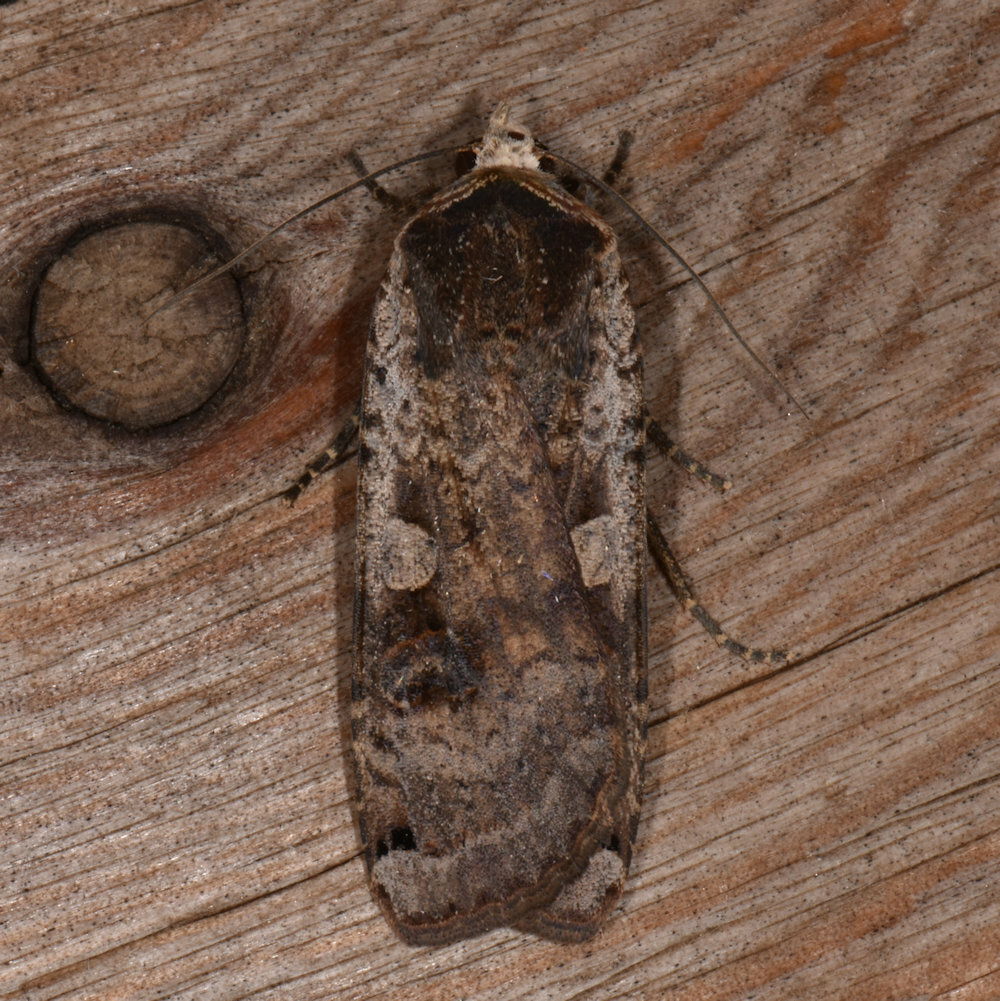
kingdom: Animalia
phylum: Arthropoda
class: Insecta
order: Lepidoptera
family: Noctuidae
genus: Noctua
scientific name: Noctua pronuba
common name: Large yellow underwing
